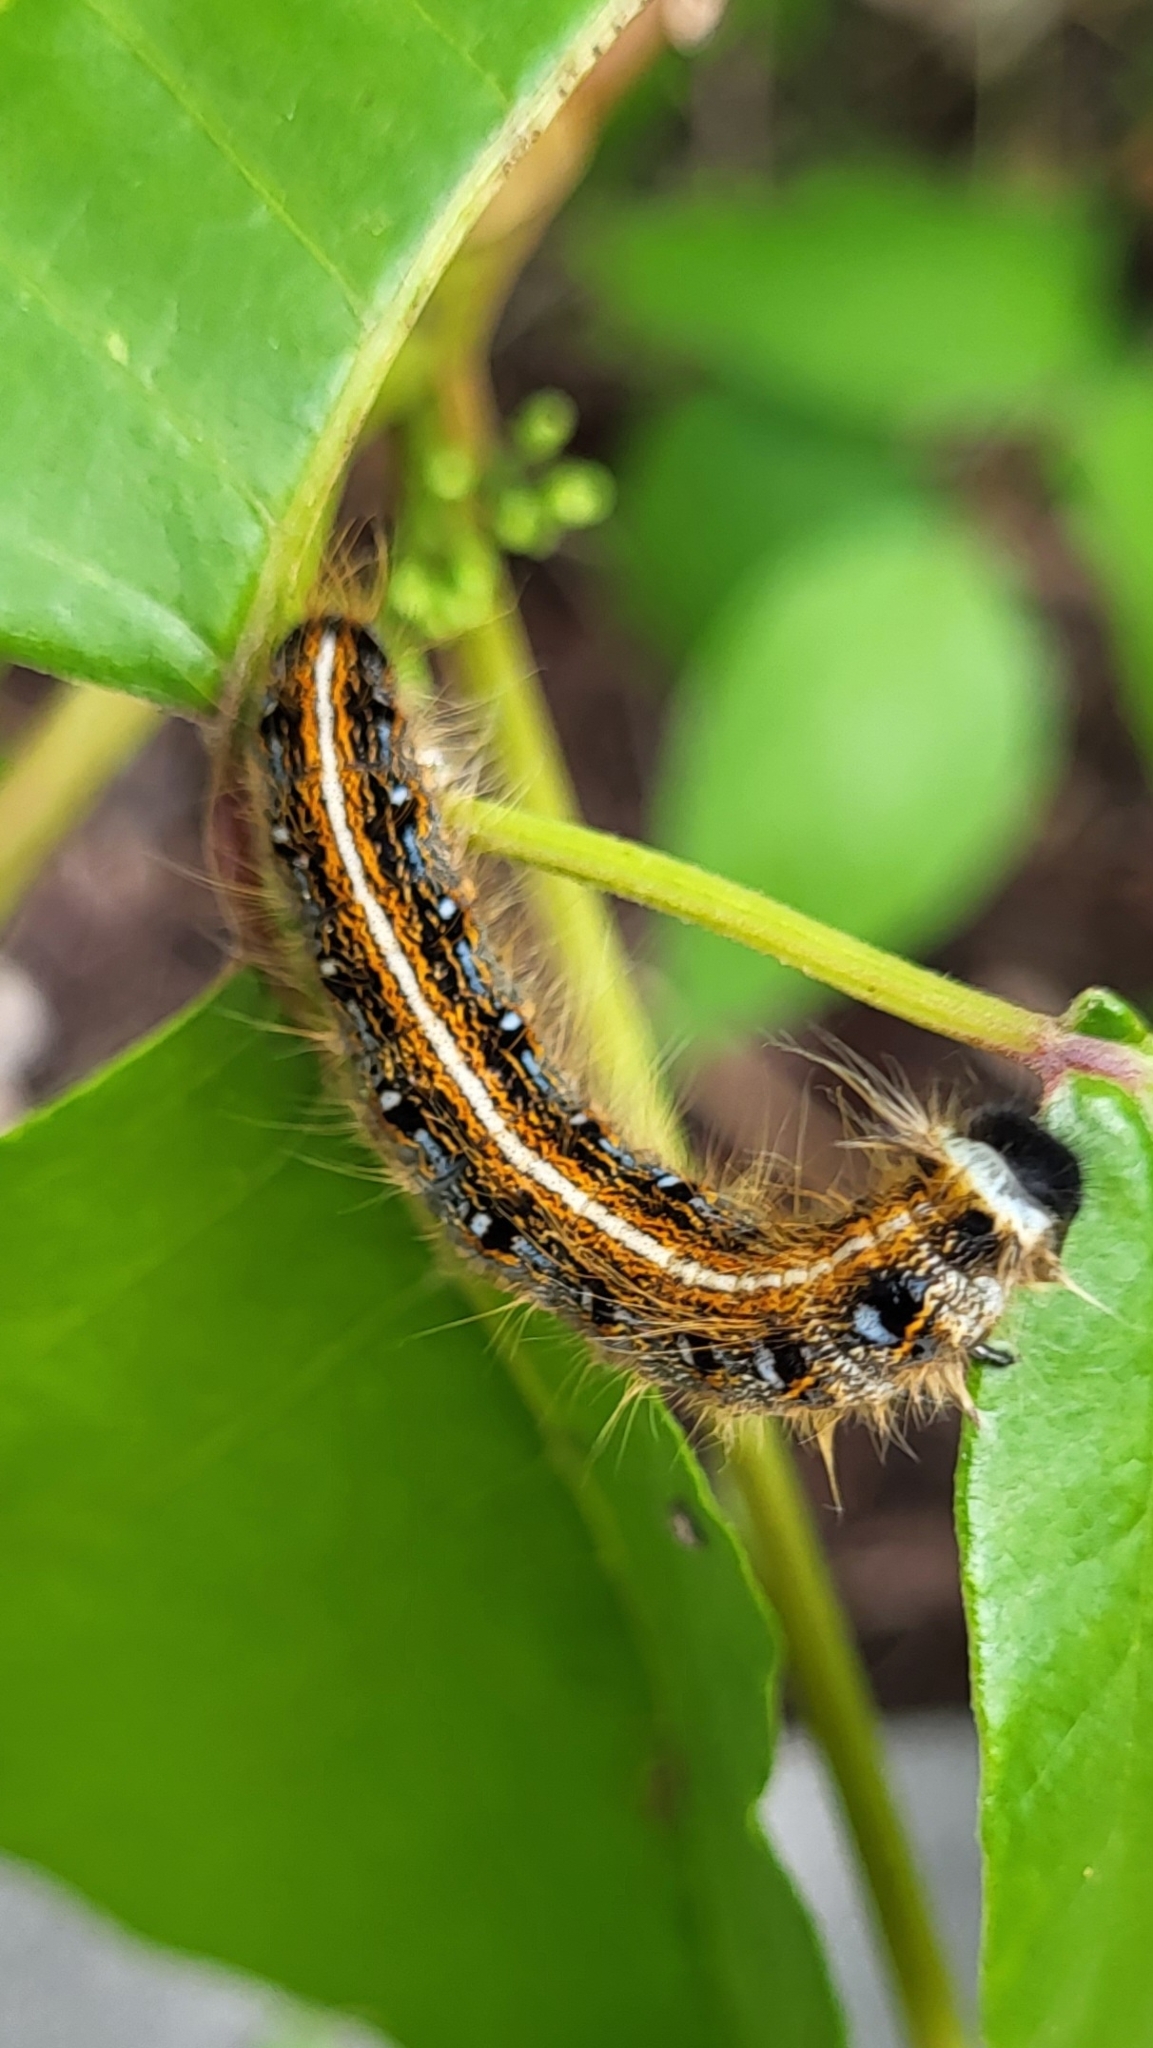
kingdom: Animalia
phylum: Arthropoda
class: Insecta
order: Lepidoptera
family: Lasiocampidae
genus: Malacosoma
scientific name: Malacosoma americana
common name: Eastern tent caterpillar moth
